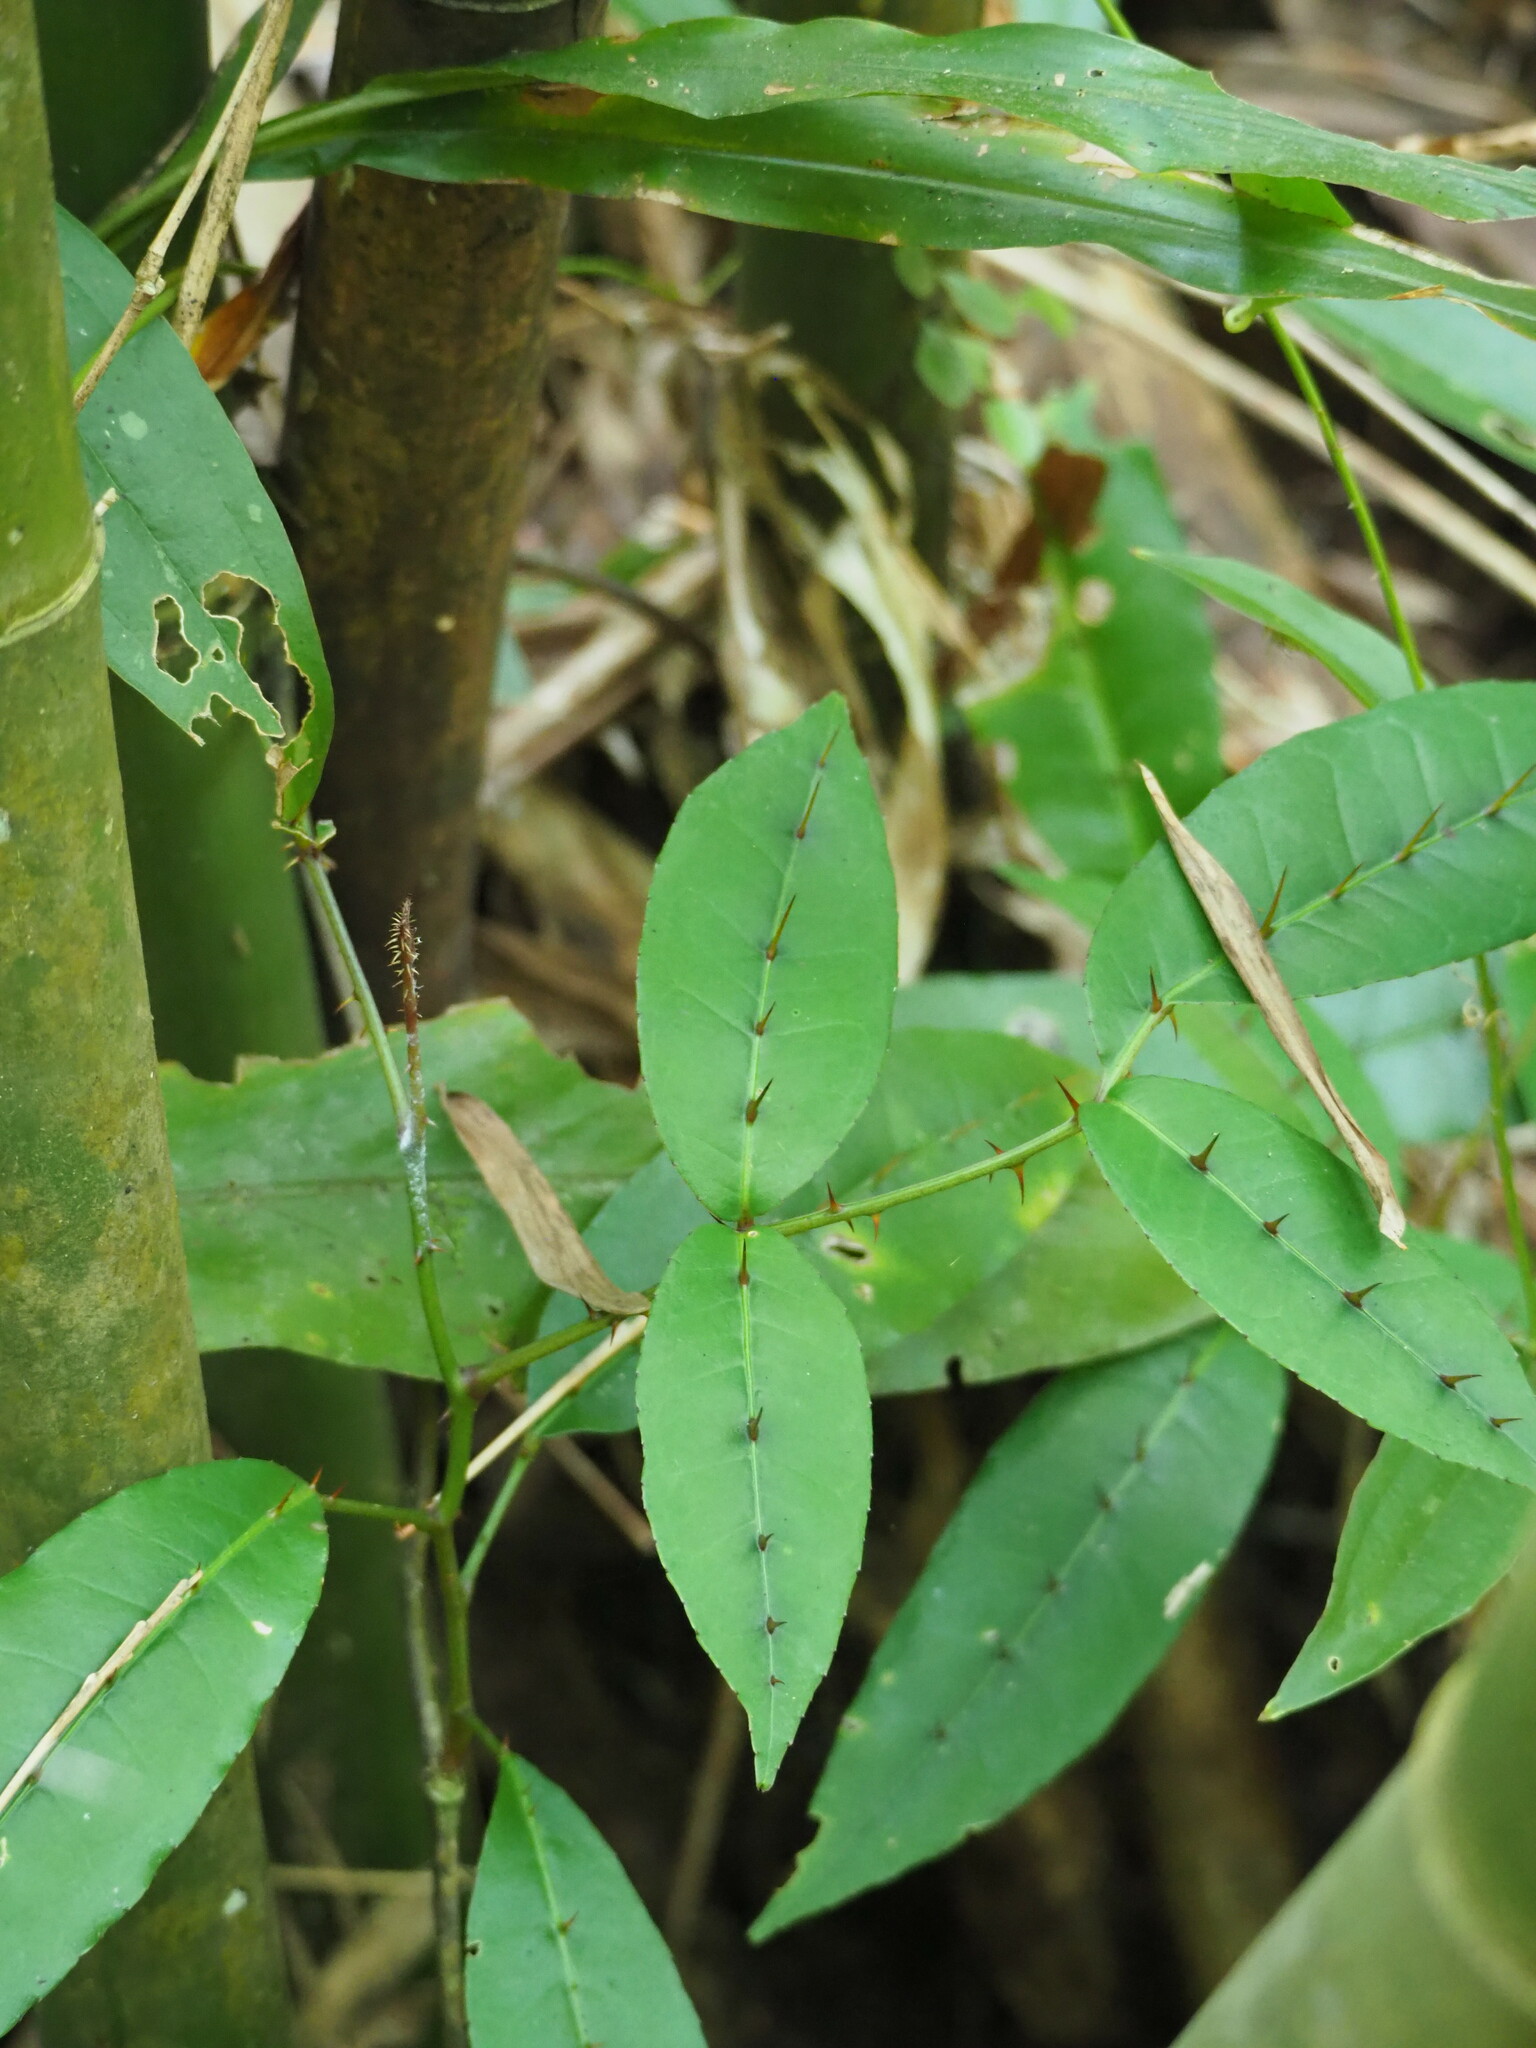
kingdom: Plantae
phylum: Tracheophyta
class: Magnoliopsida
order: Sapindales
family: Rutaceae
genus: Zanthoxylum
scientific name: Zanthoxylum nitidum
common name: Shiny-leaf prickly-ash
